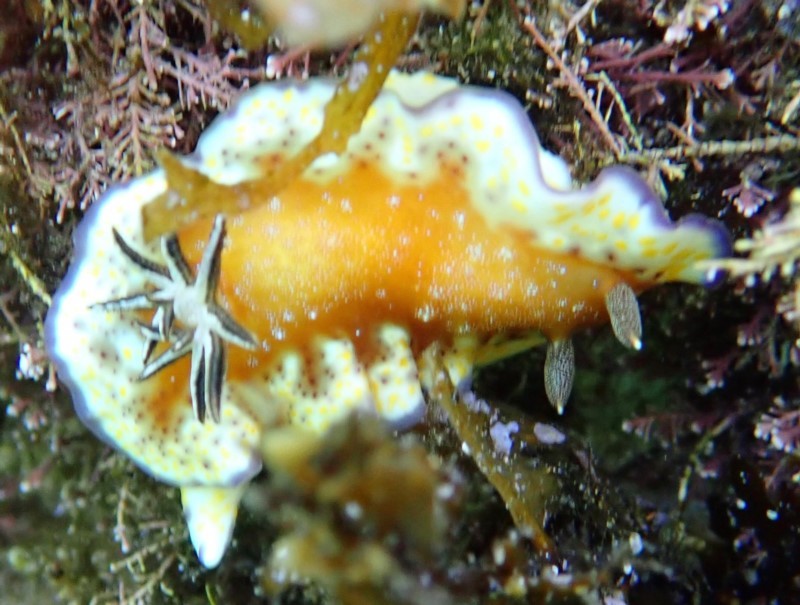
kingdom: Animalia
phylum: Mollusca
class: Gastropoda
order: Nudibranchia
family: Chromodorididae
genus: Goniobranchus
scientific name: Goniobranchus collingwoodi
